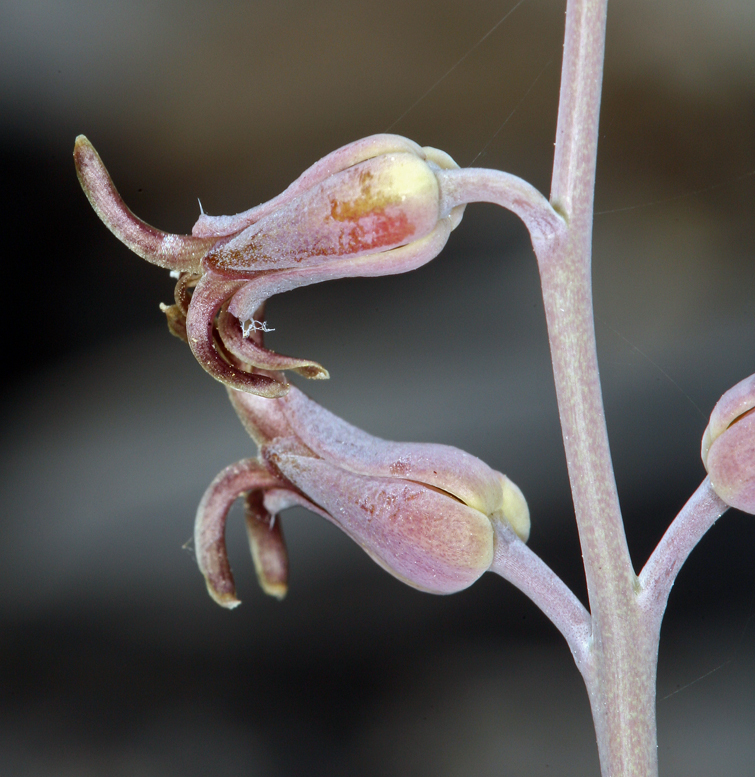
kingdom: Plantae
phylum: Tracheophyta
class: Magnoliopsida
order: Brassicales
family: Brassicaceae
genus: Streptanthus
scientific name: Streptanthus cordatus
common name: Heart-leaf jewel-flower
